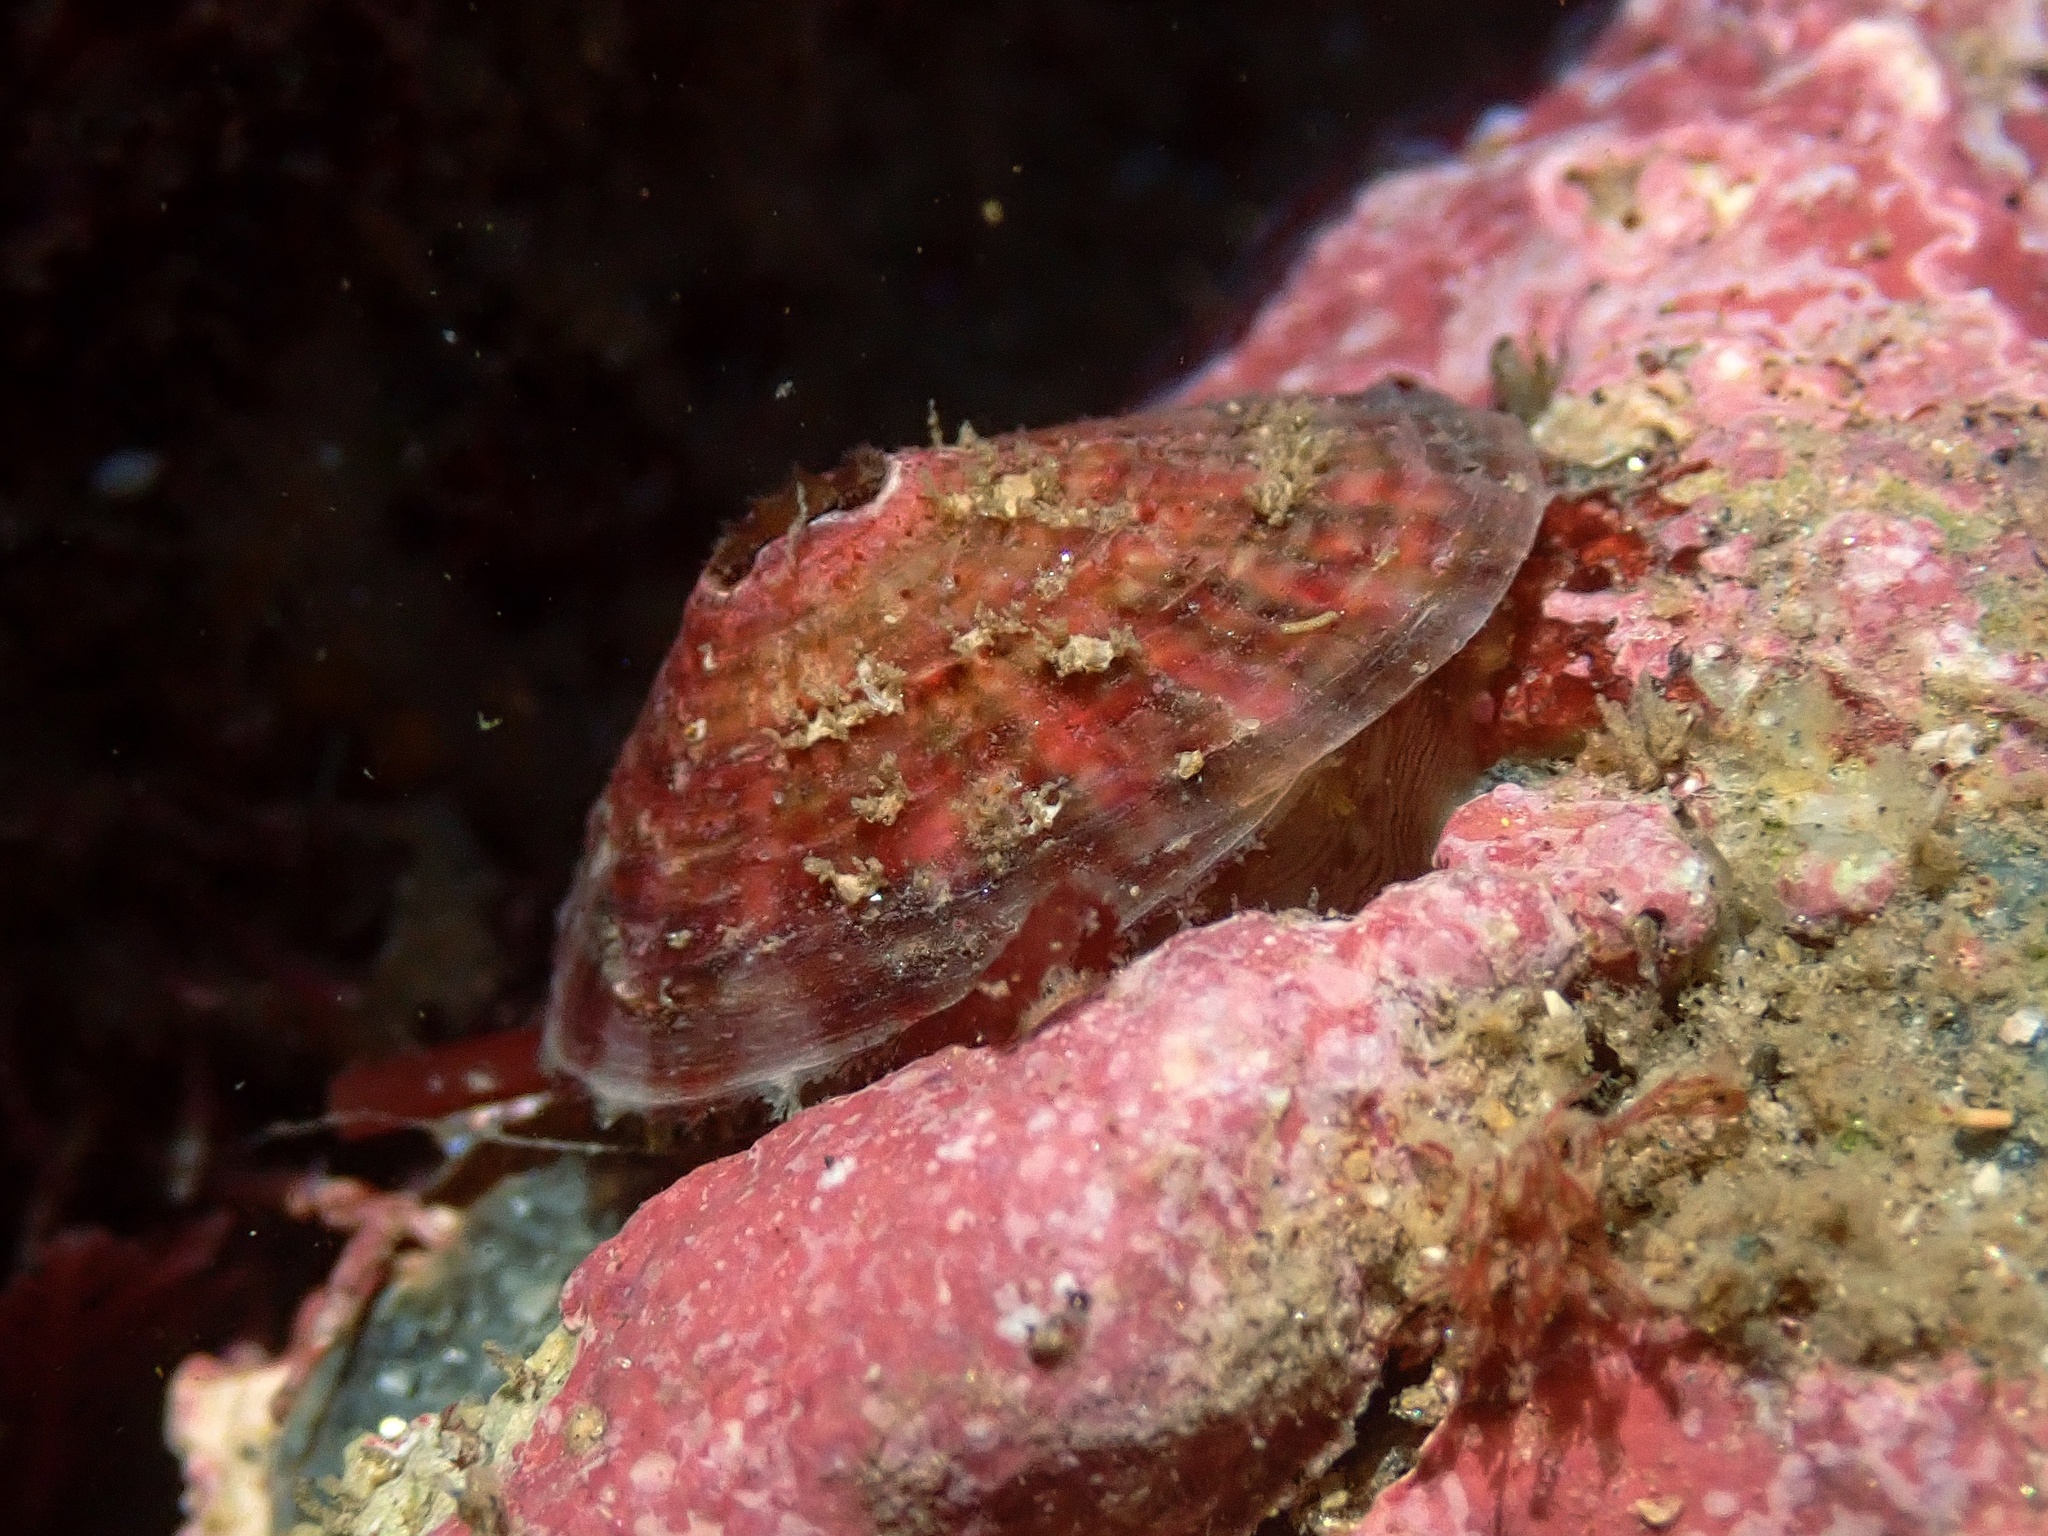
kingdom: Animalia
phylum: Mollusca
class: Gastropoda
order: Lepetellida
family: Fissurellidae
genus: Fissurella
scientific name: Fissurella volcano
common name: Volcano keyhole limpet
